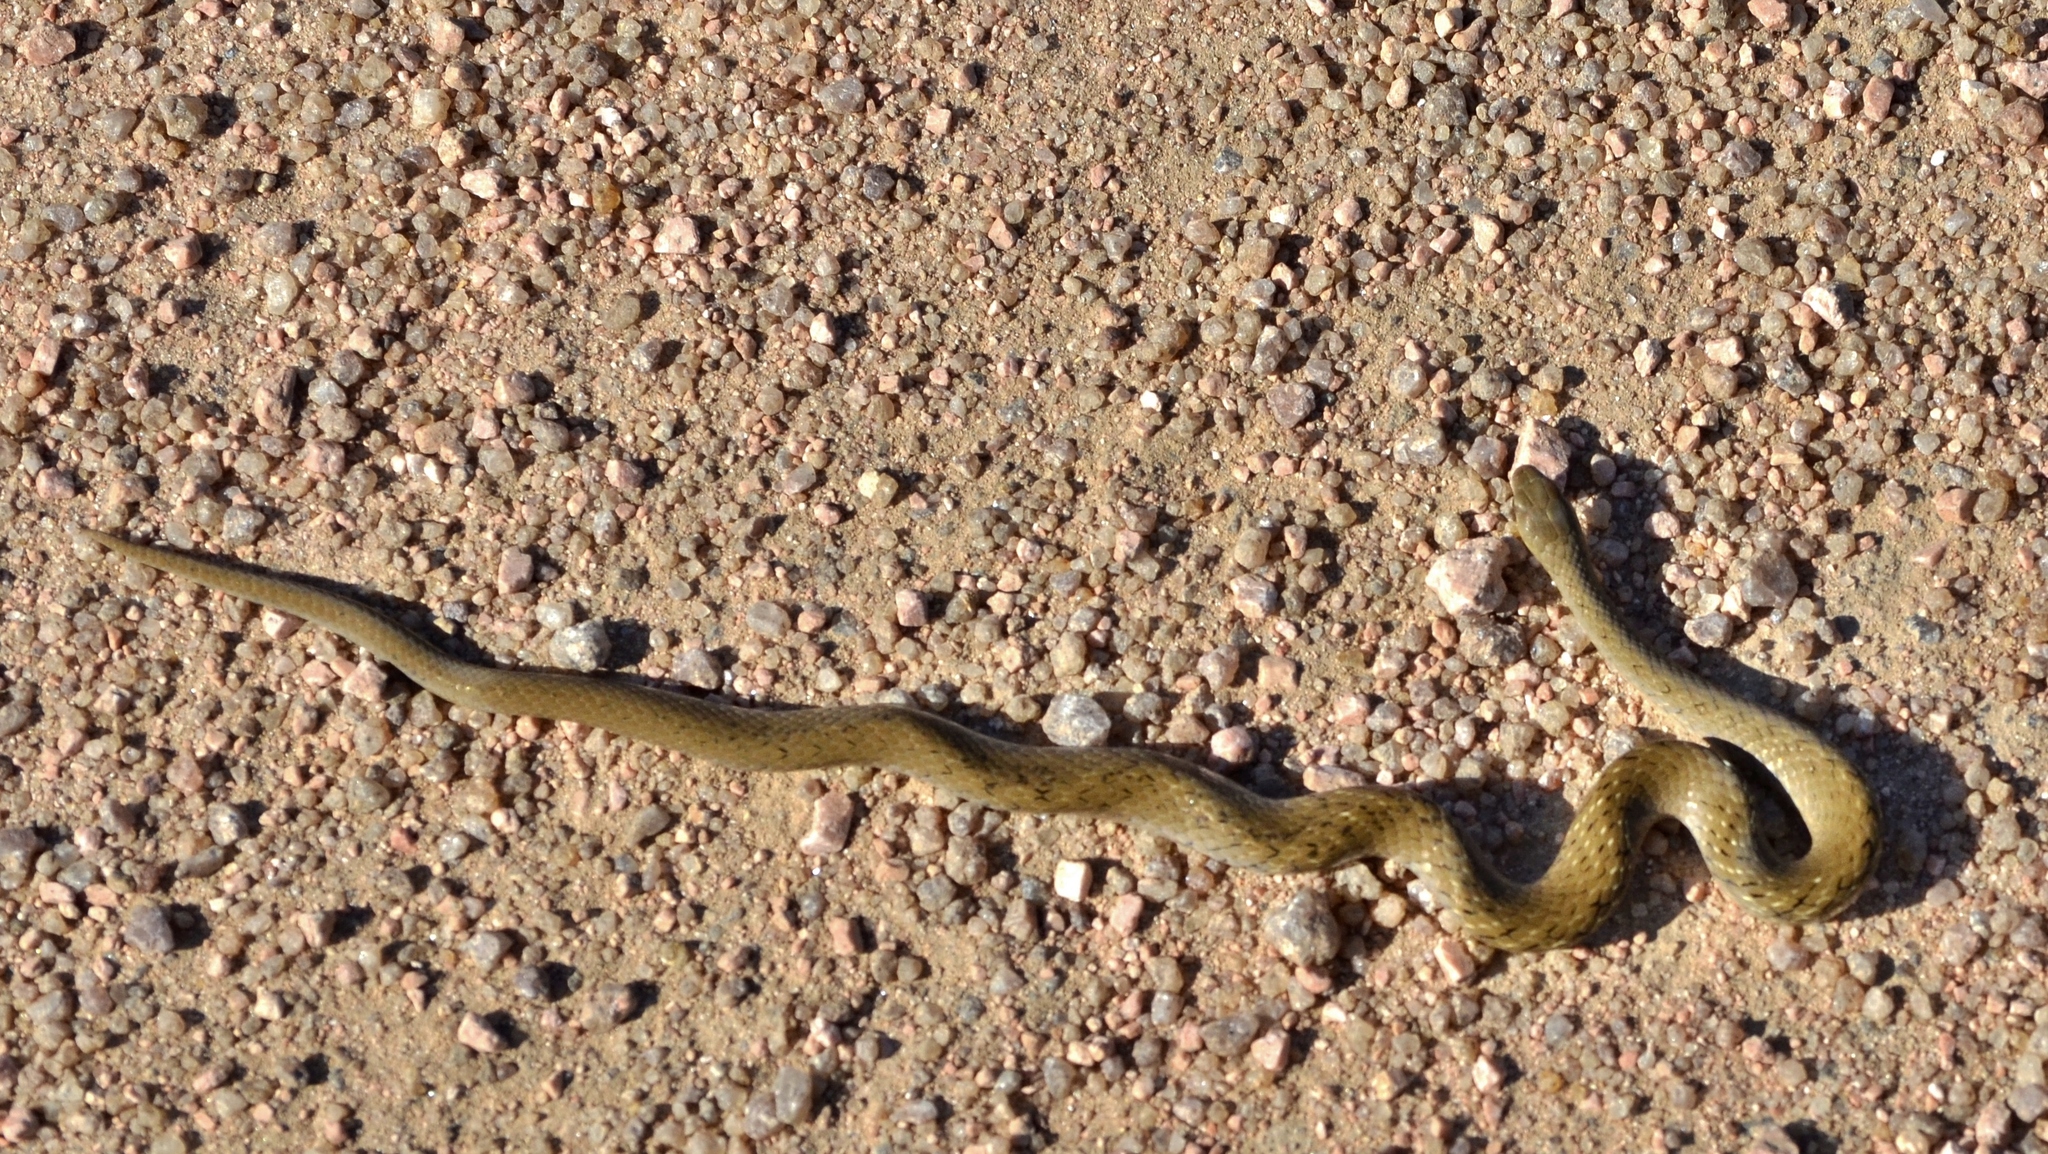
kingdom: Animalia
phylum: Chordata
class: Squamata
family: Colubridae
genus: Calamodontophis
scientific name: Calamodontophis paucidens
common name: Tropical forest snake
